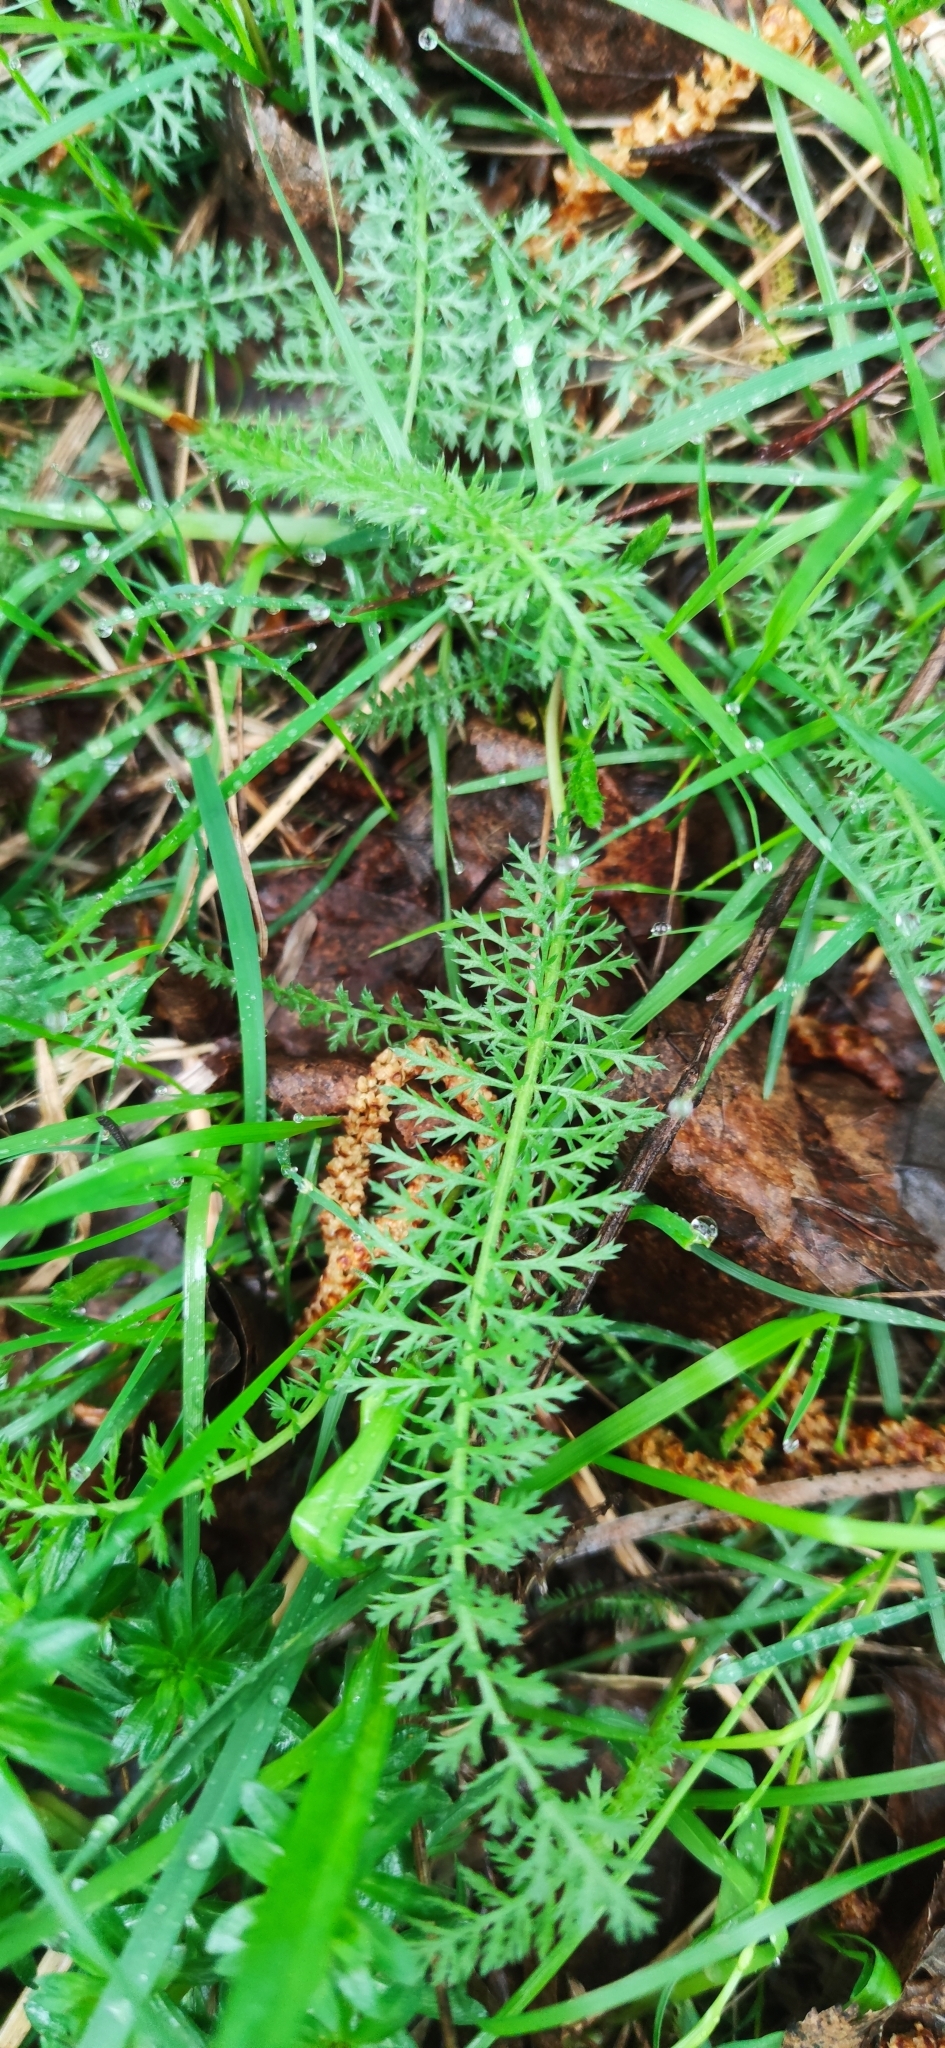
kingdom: Plantae
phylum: Tracheophyta
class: Magnoliopsida
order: Asterales
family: Asteraceae
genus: Achillea
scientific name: Achillea millefolium
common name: Yarrow
